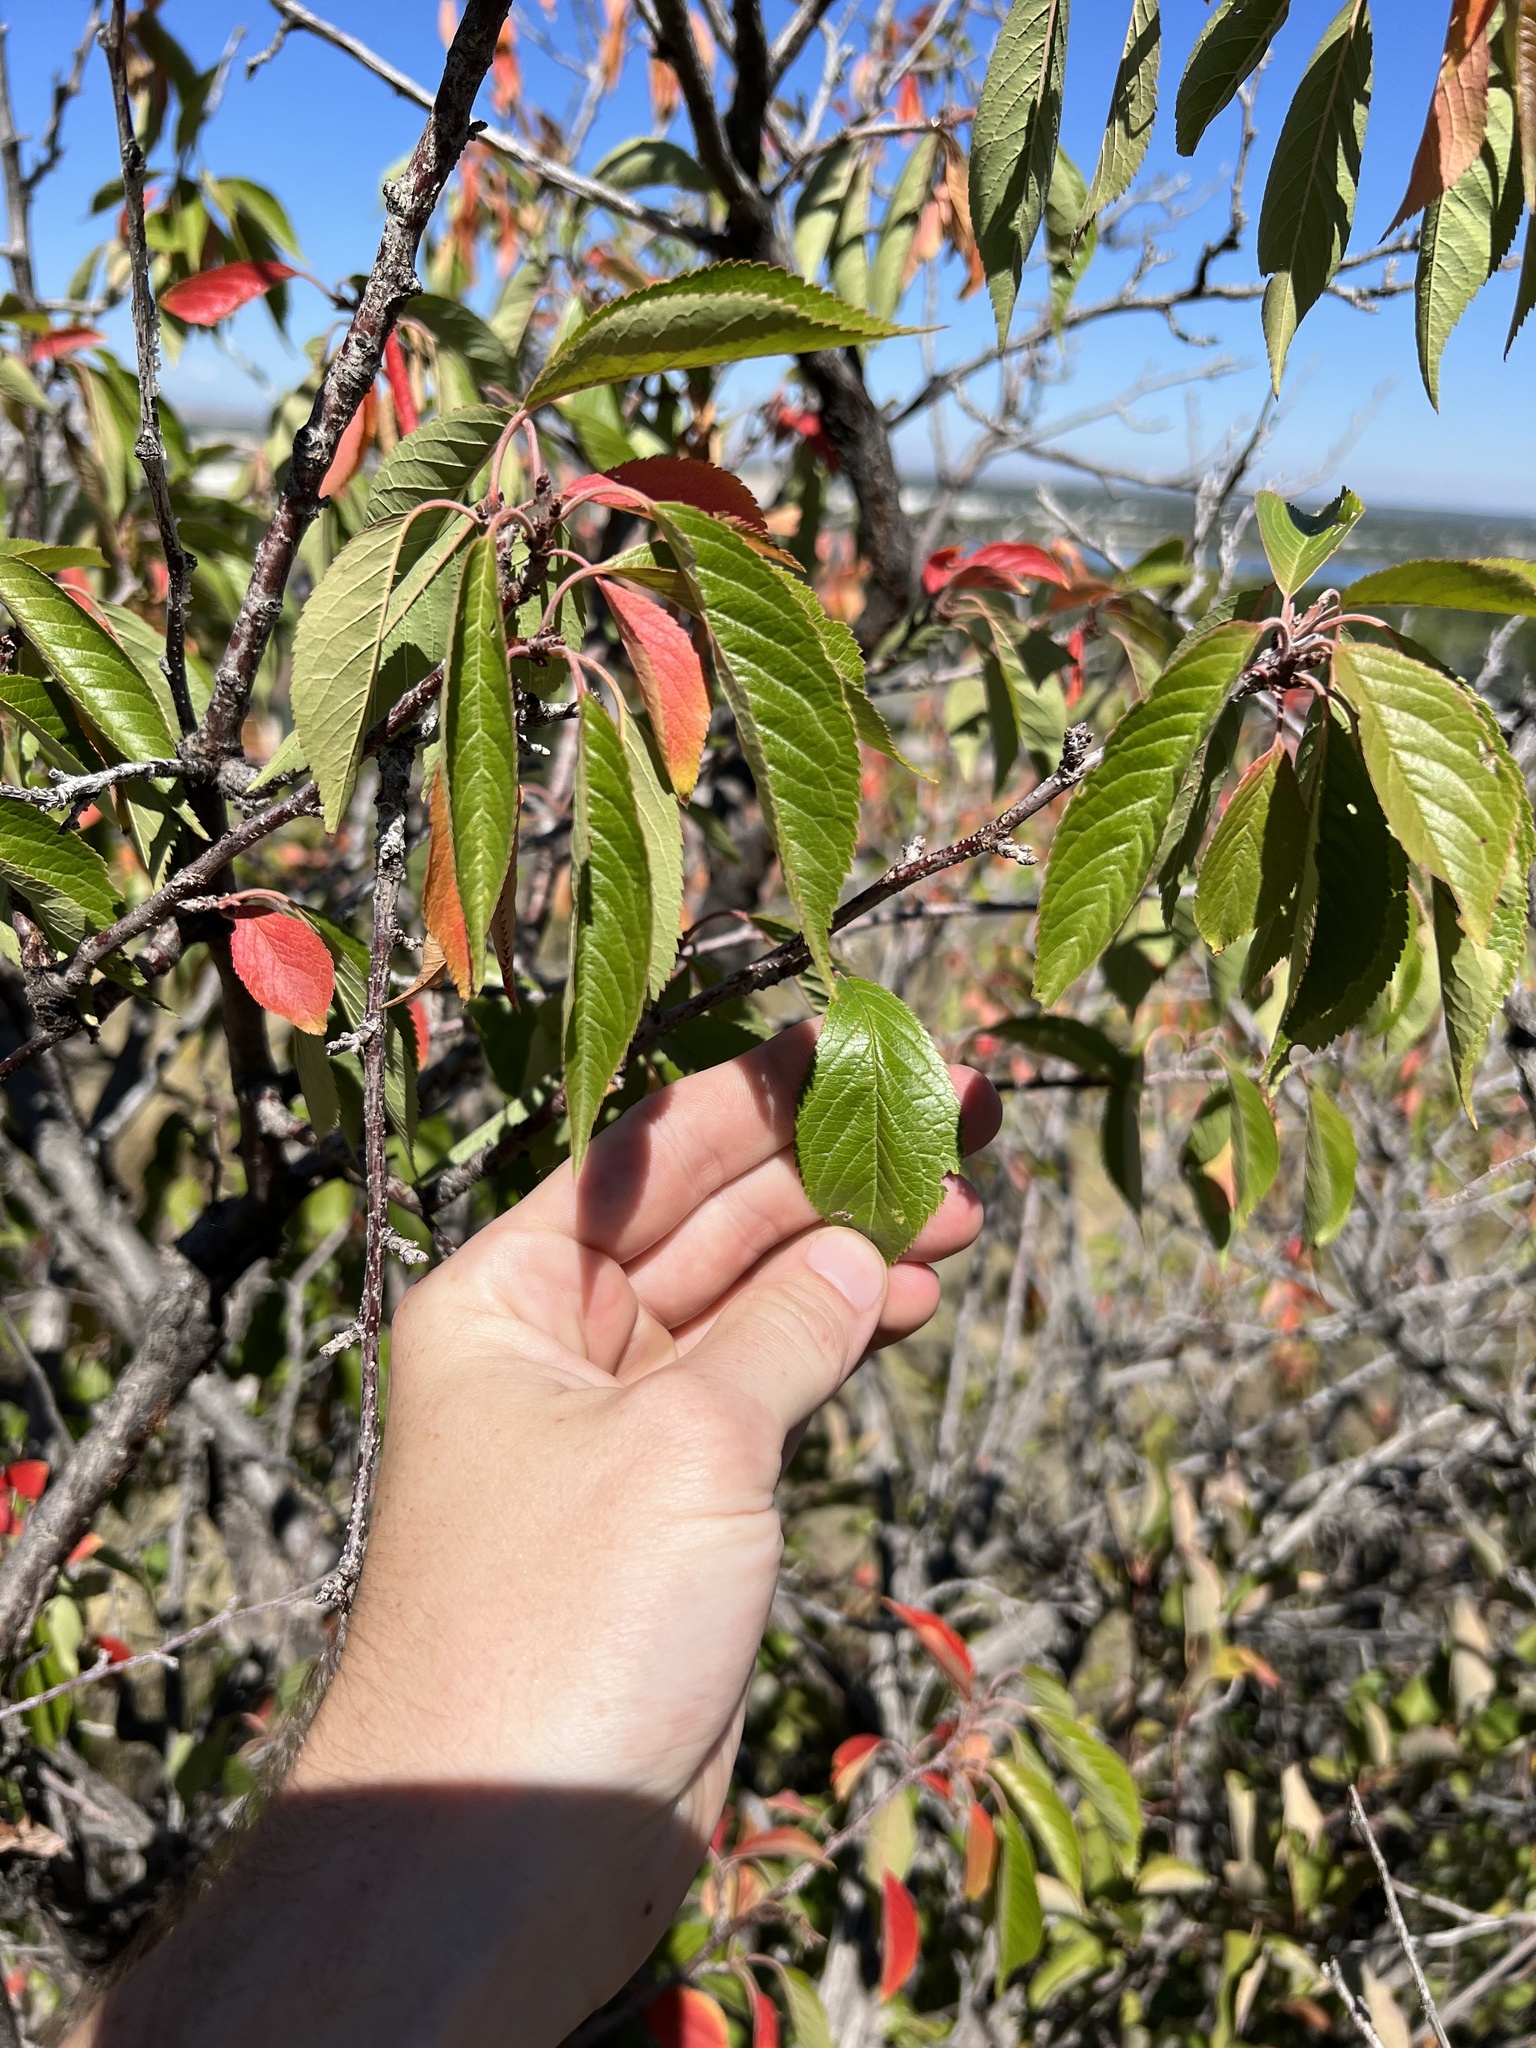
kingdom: Plantae
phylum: Tracheophyta
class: Magnoliopsida
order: Rosales
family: Rosaceae
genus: Prunus
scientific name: Prunus americana
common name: American plum
